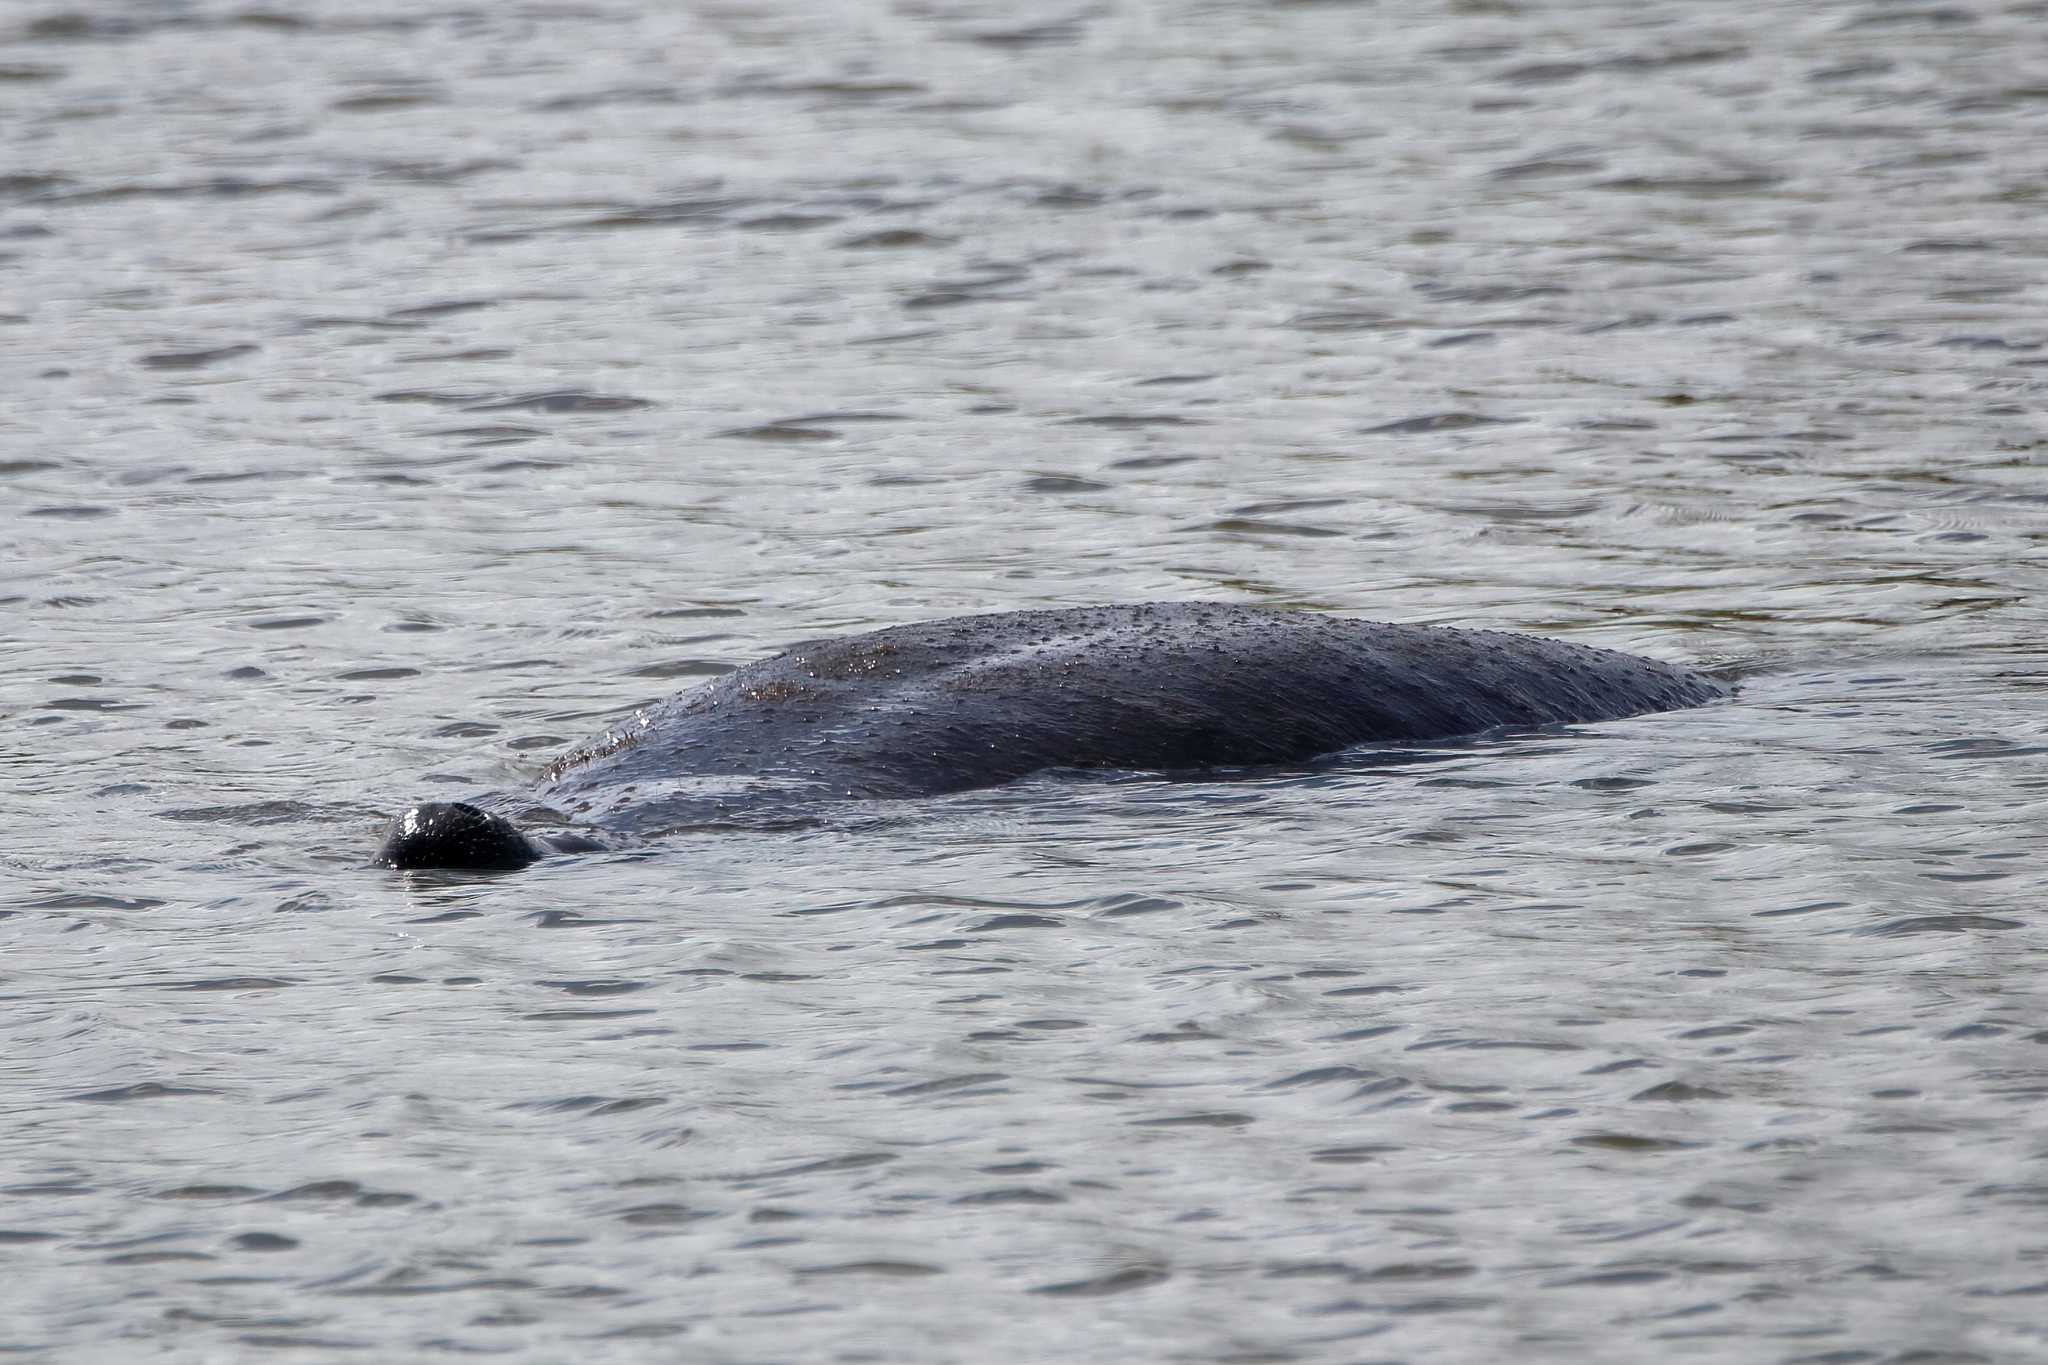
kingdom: Animalia
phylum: Chordata
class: Mammalia
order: Sirenia
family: Trichechidae
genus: Trichechus
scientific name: Trichechus manatus
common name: West indian manatee
